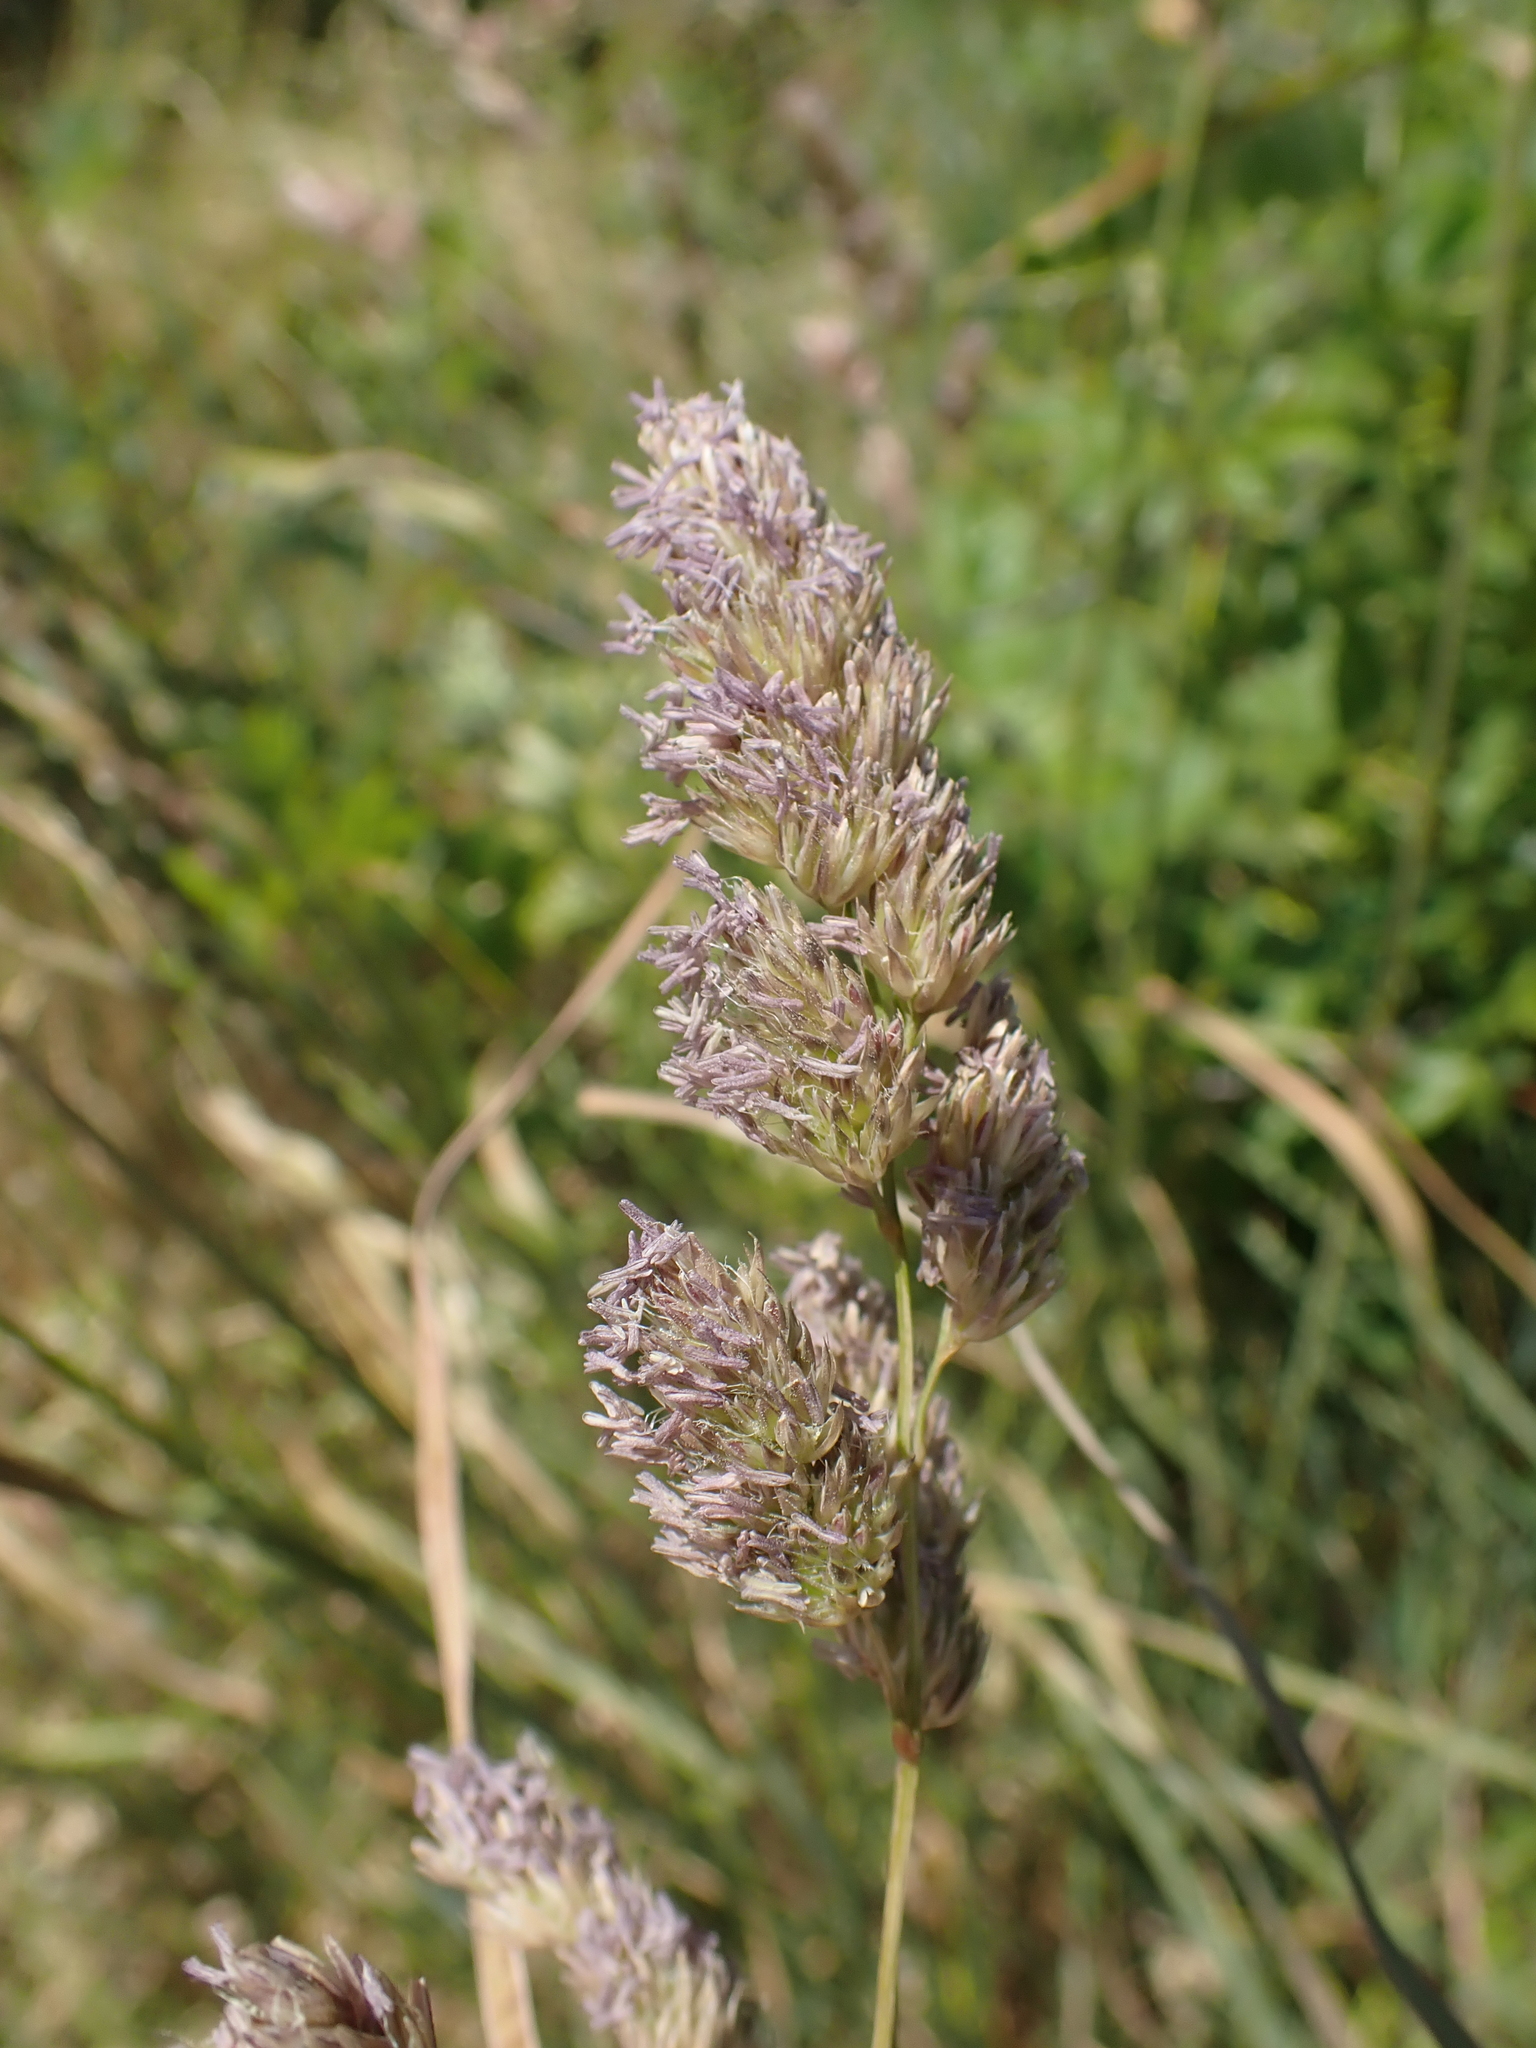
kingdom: Plantae
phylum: Tracheophyta
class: Liliopsida
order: Poales
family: Poaceae
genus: Dactylis
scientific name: Dactylis glomerata
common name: Orchardgrass
